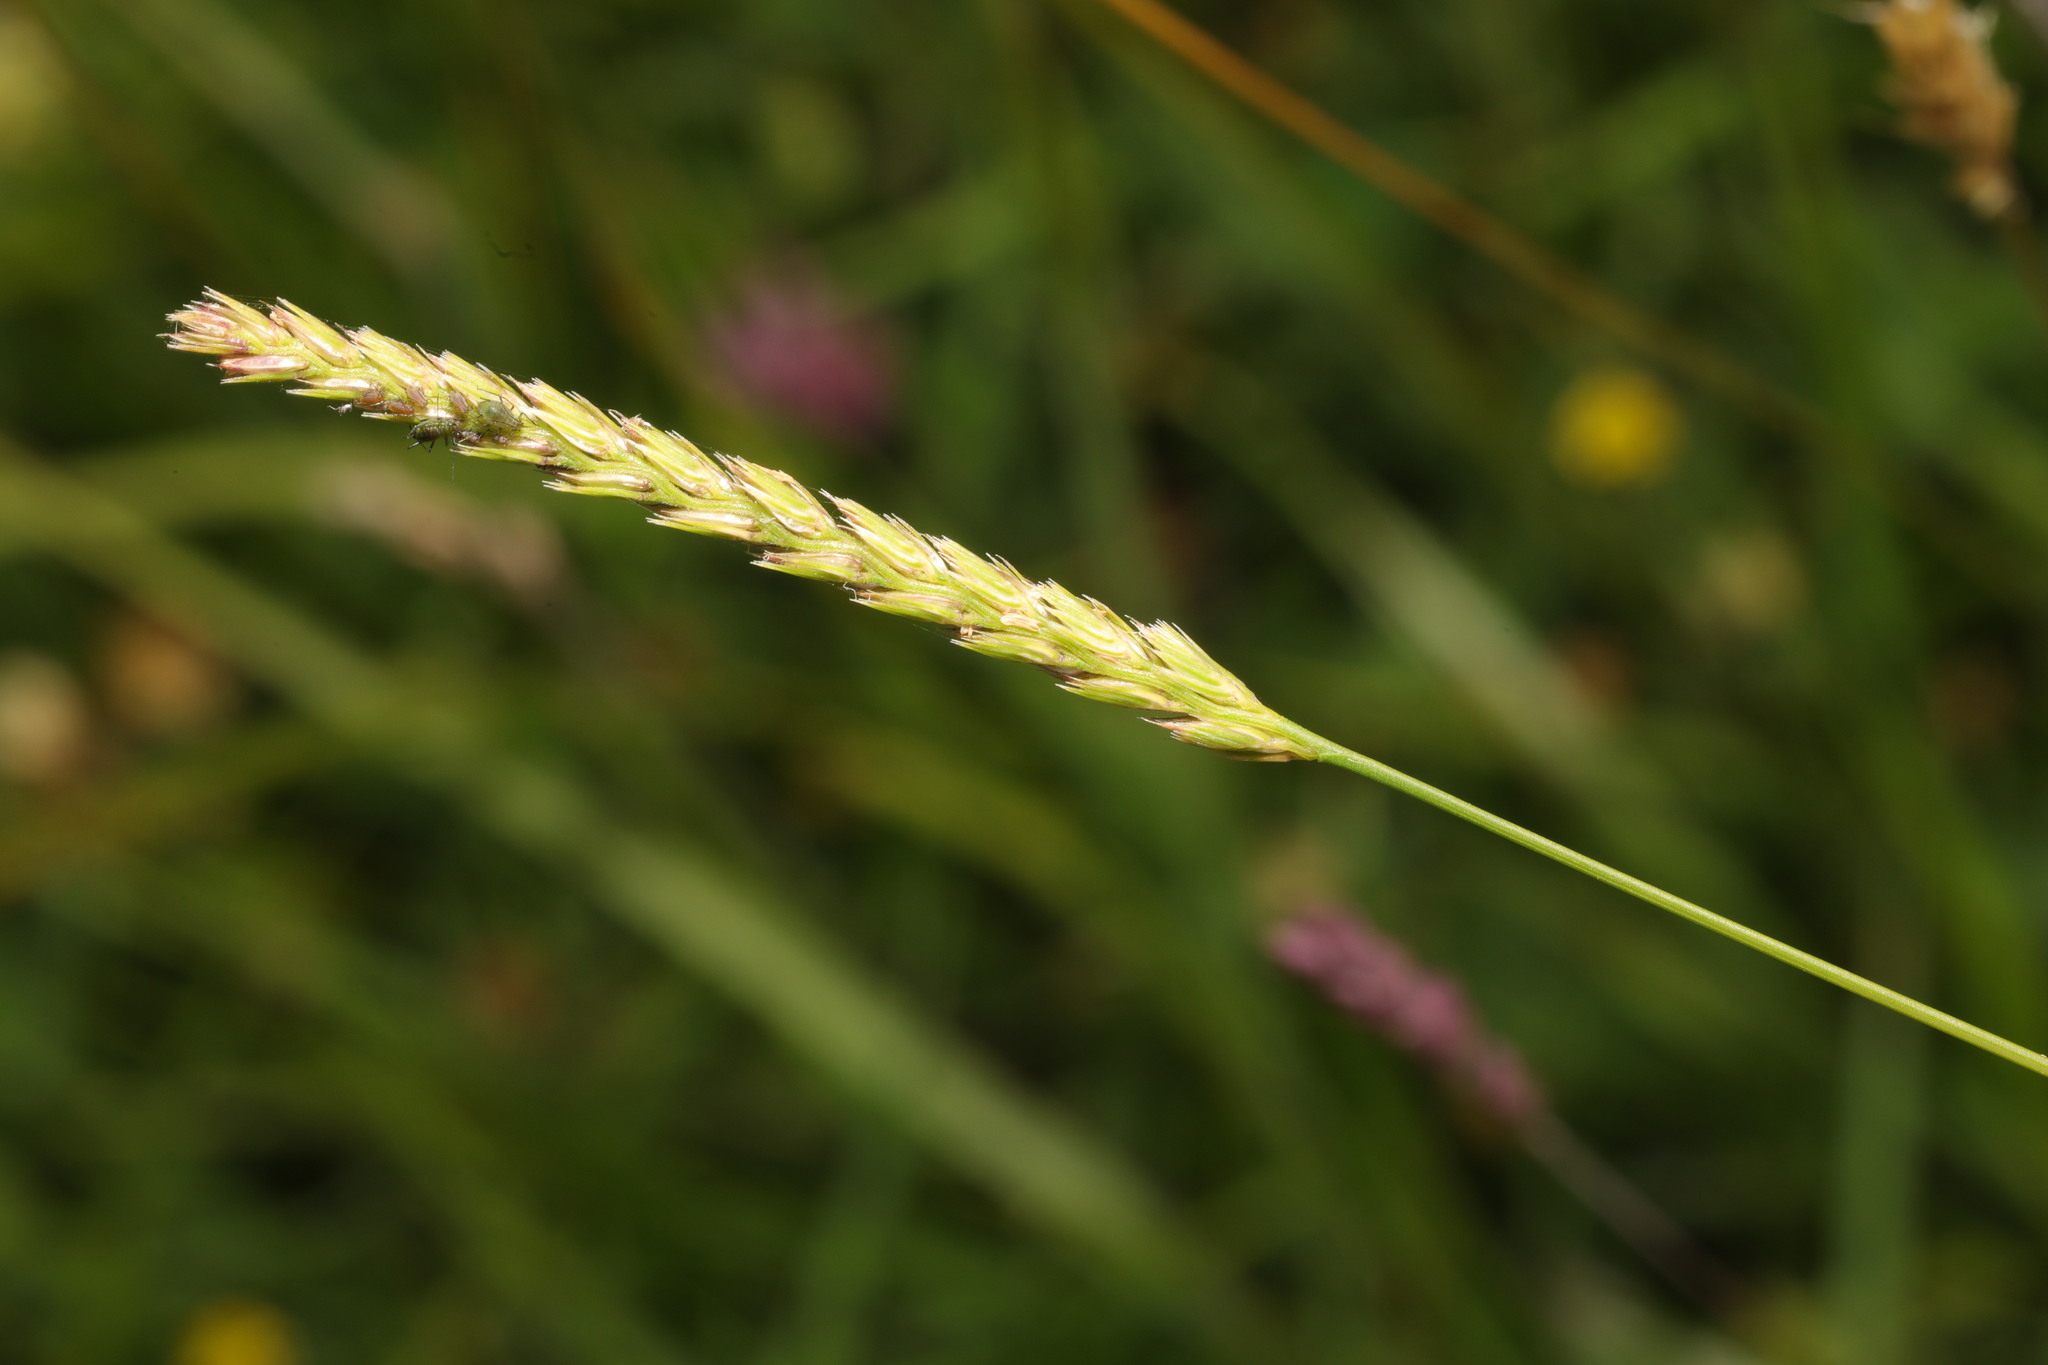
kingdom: Plantae
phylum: Tracheophyta
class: Liliopsida
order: Poales
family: Poaceae
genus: Cynosurus
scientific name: Cynosurus cristatus
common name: Crested dog's-tail
